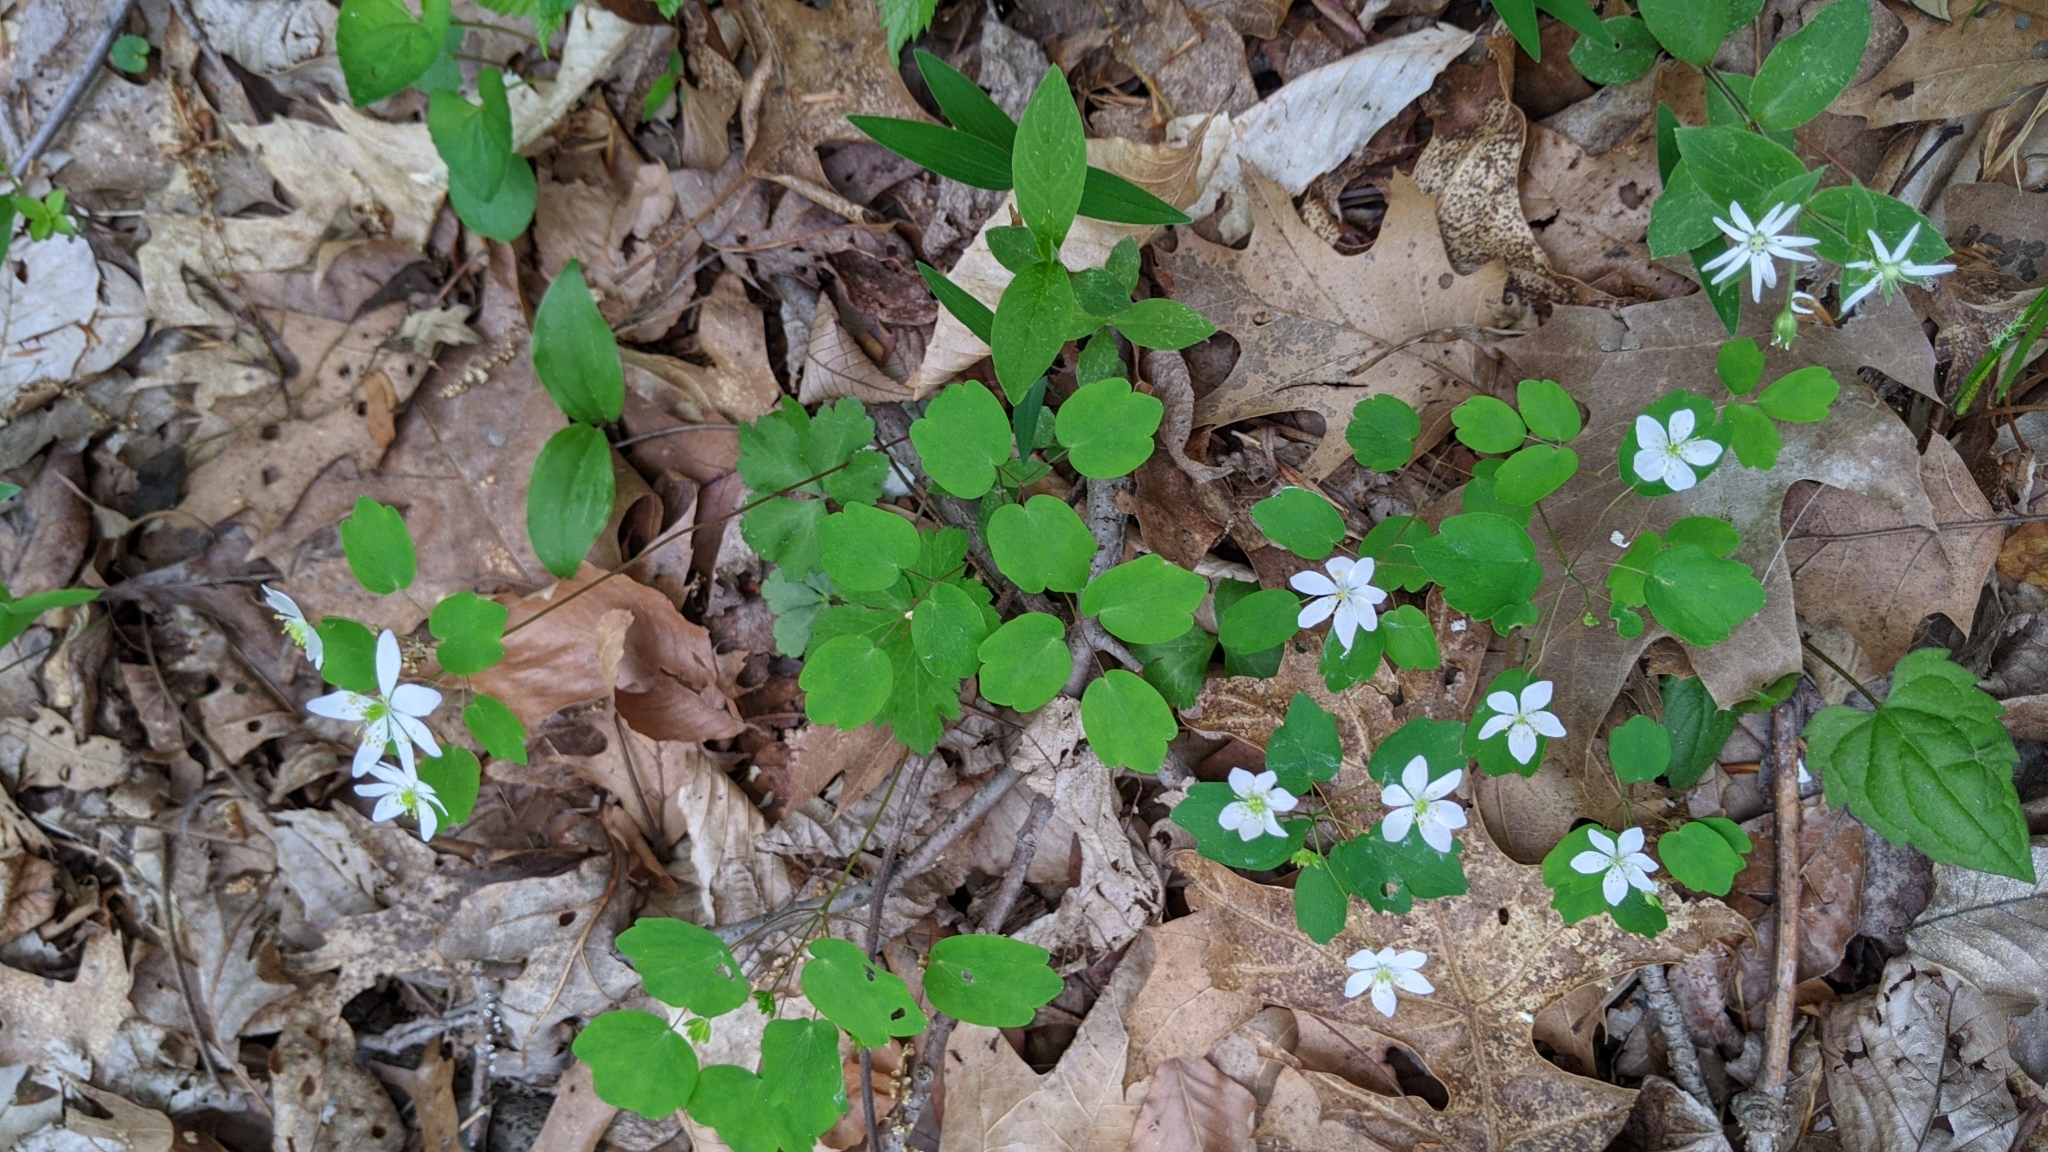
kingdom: Plantae
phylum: Tracheophyta
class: Magnoliopsida
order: Ranunculales
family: Ranunculaceae
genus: Thalictrum
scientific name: Thalictrum thalictroides
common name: Rue-anemone
